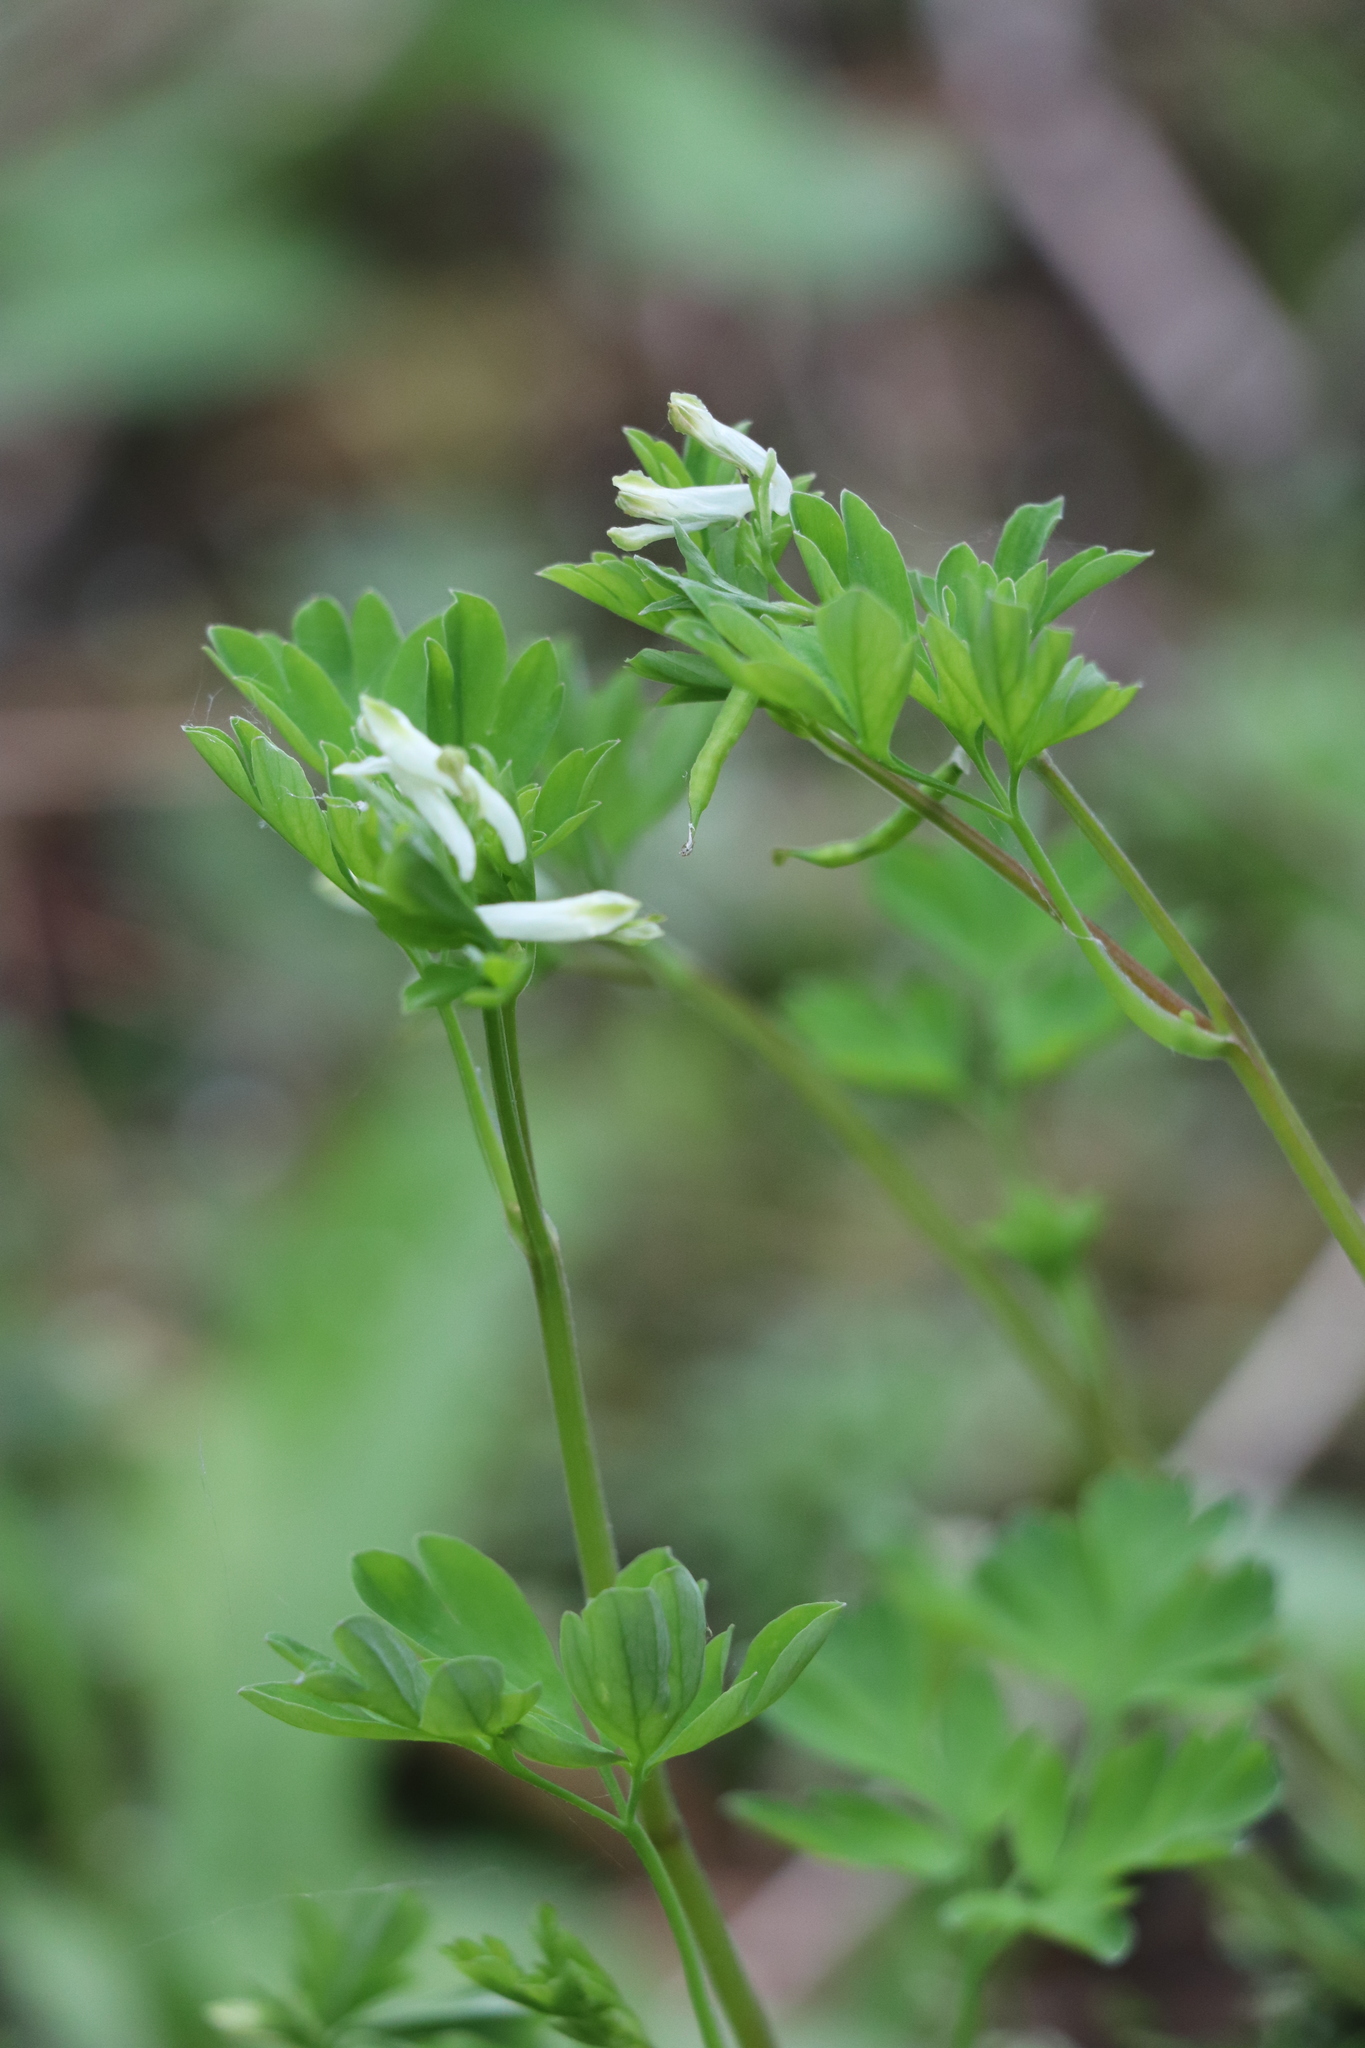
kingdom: Plantae
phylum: Tracheophyta
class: Magnoliopsida
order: Ranunculales
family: Papaveraceae
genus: Corydalis
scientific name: Corydalis capnoides
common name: Beaked corydalis
